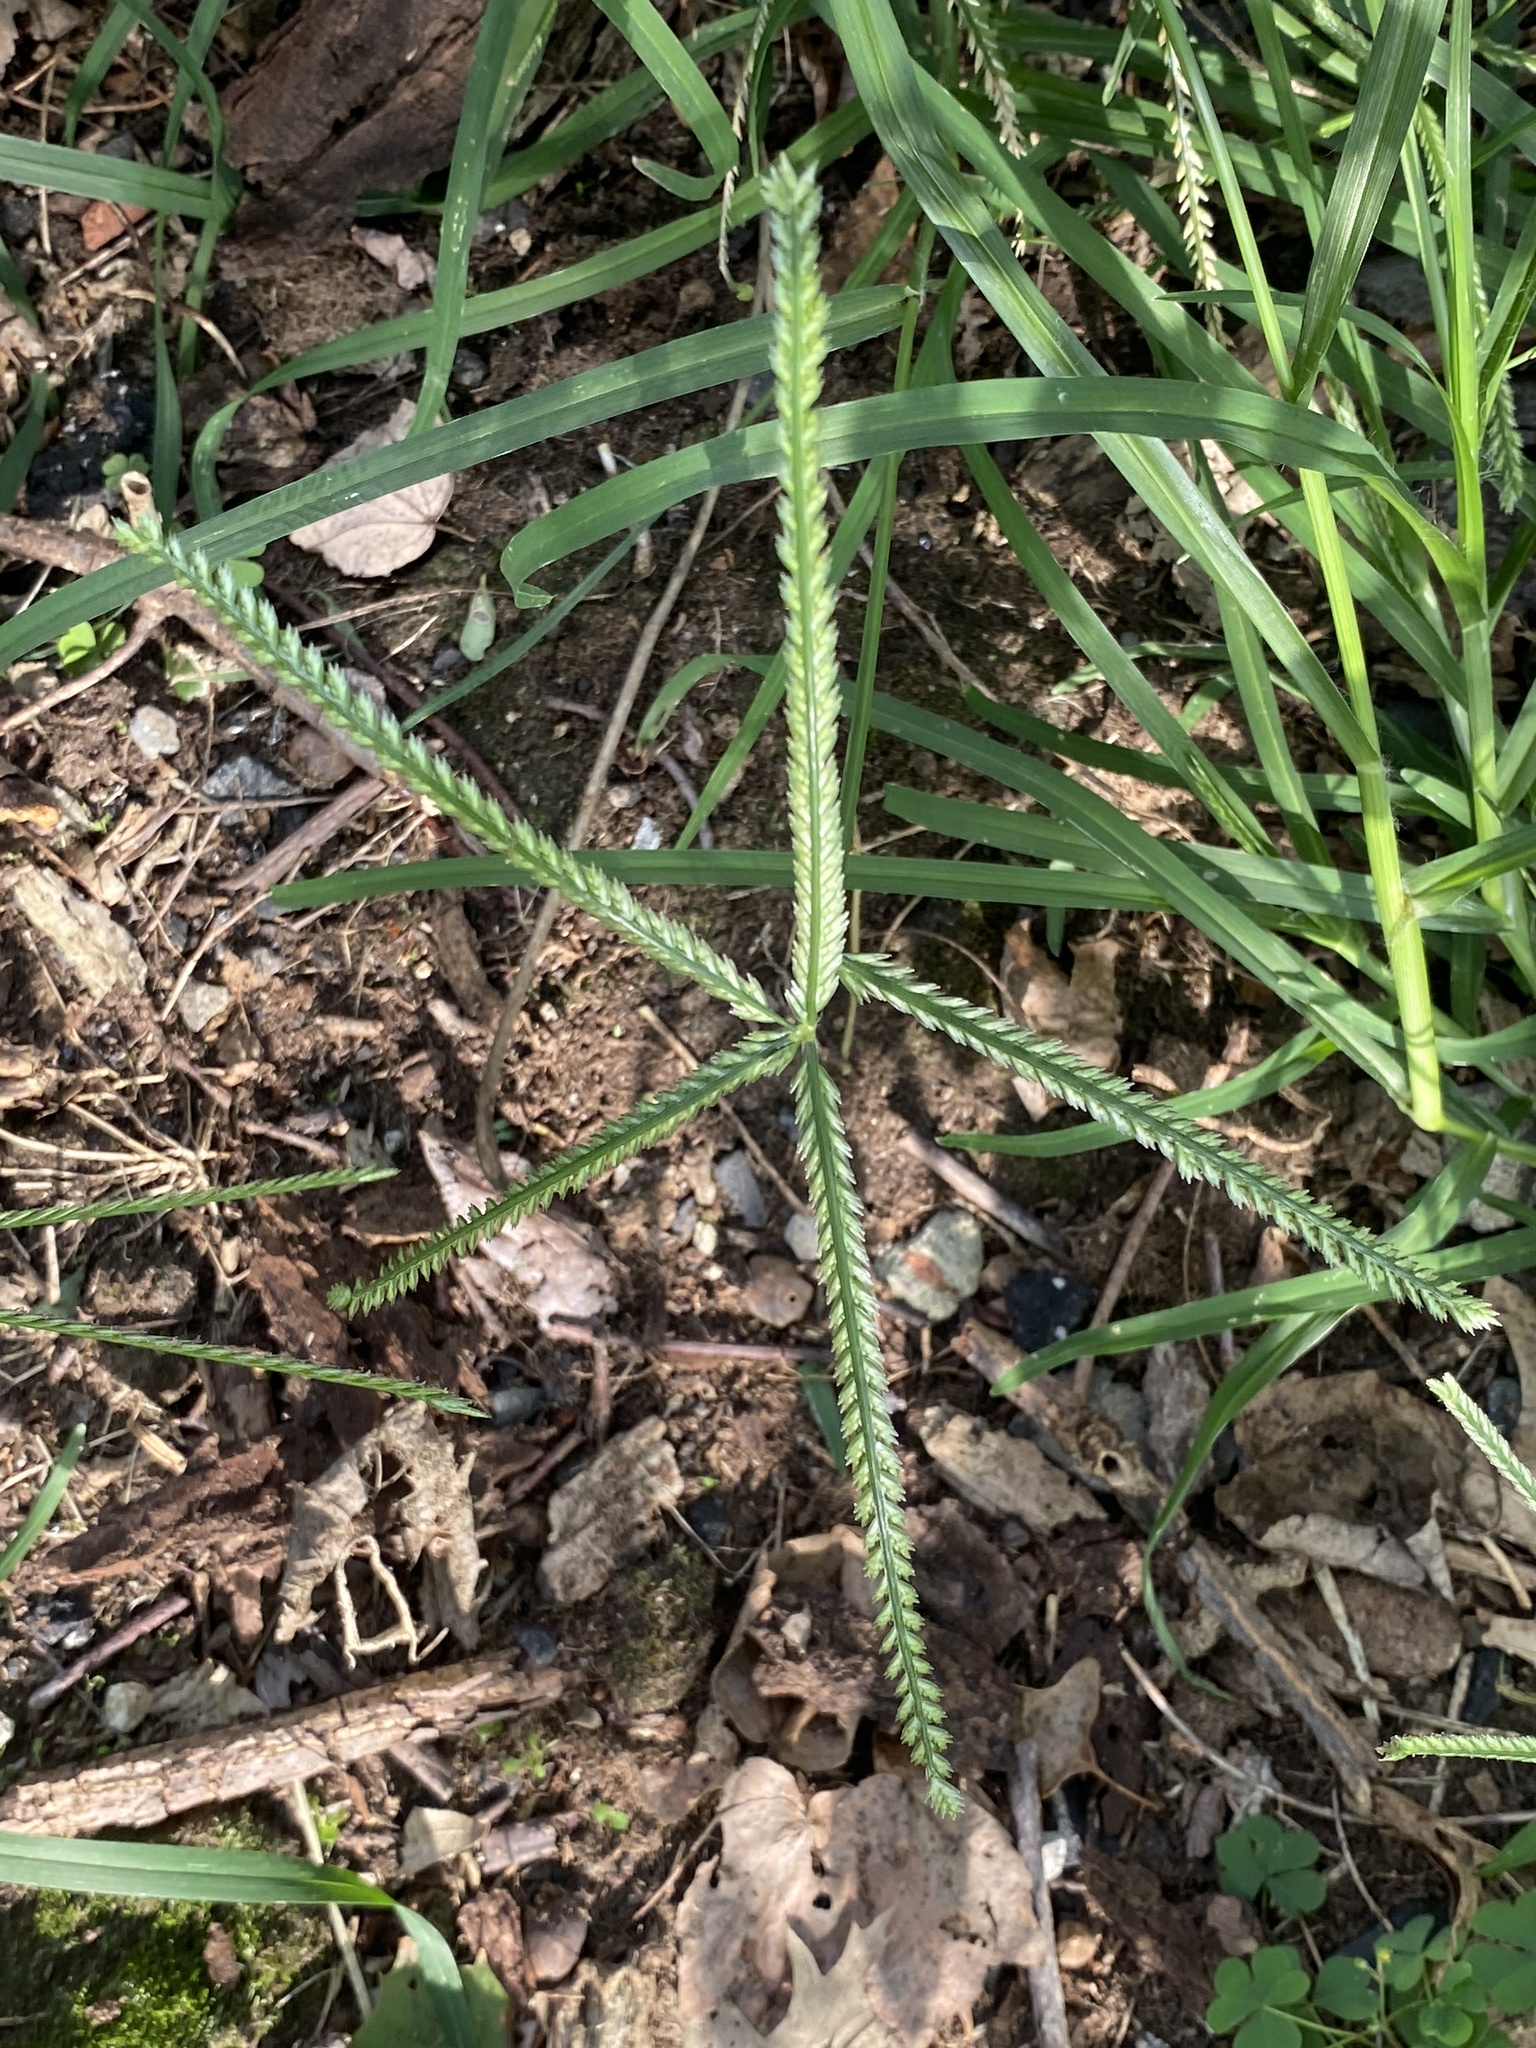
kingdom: Plantae
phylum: Tracheophyta
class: Liliopsida
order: Poales
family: Poaceae
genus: Eleusine
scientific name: Eleusine indica
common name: Yard-grass
